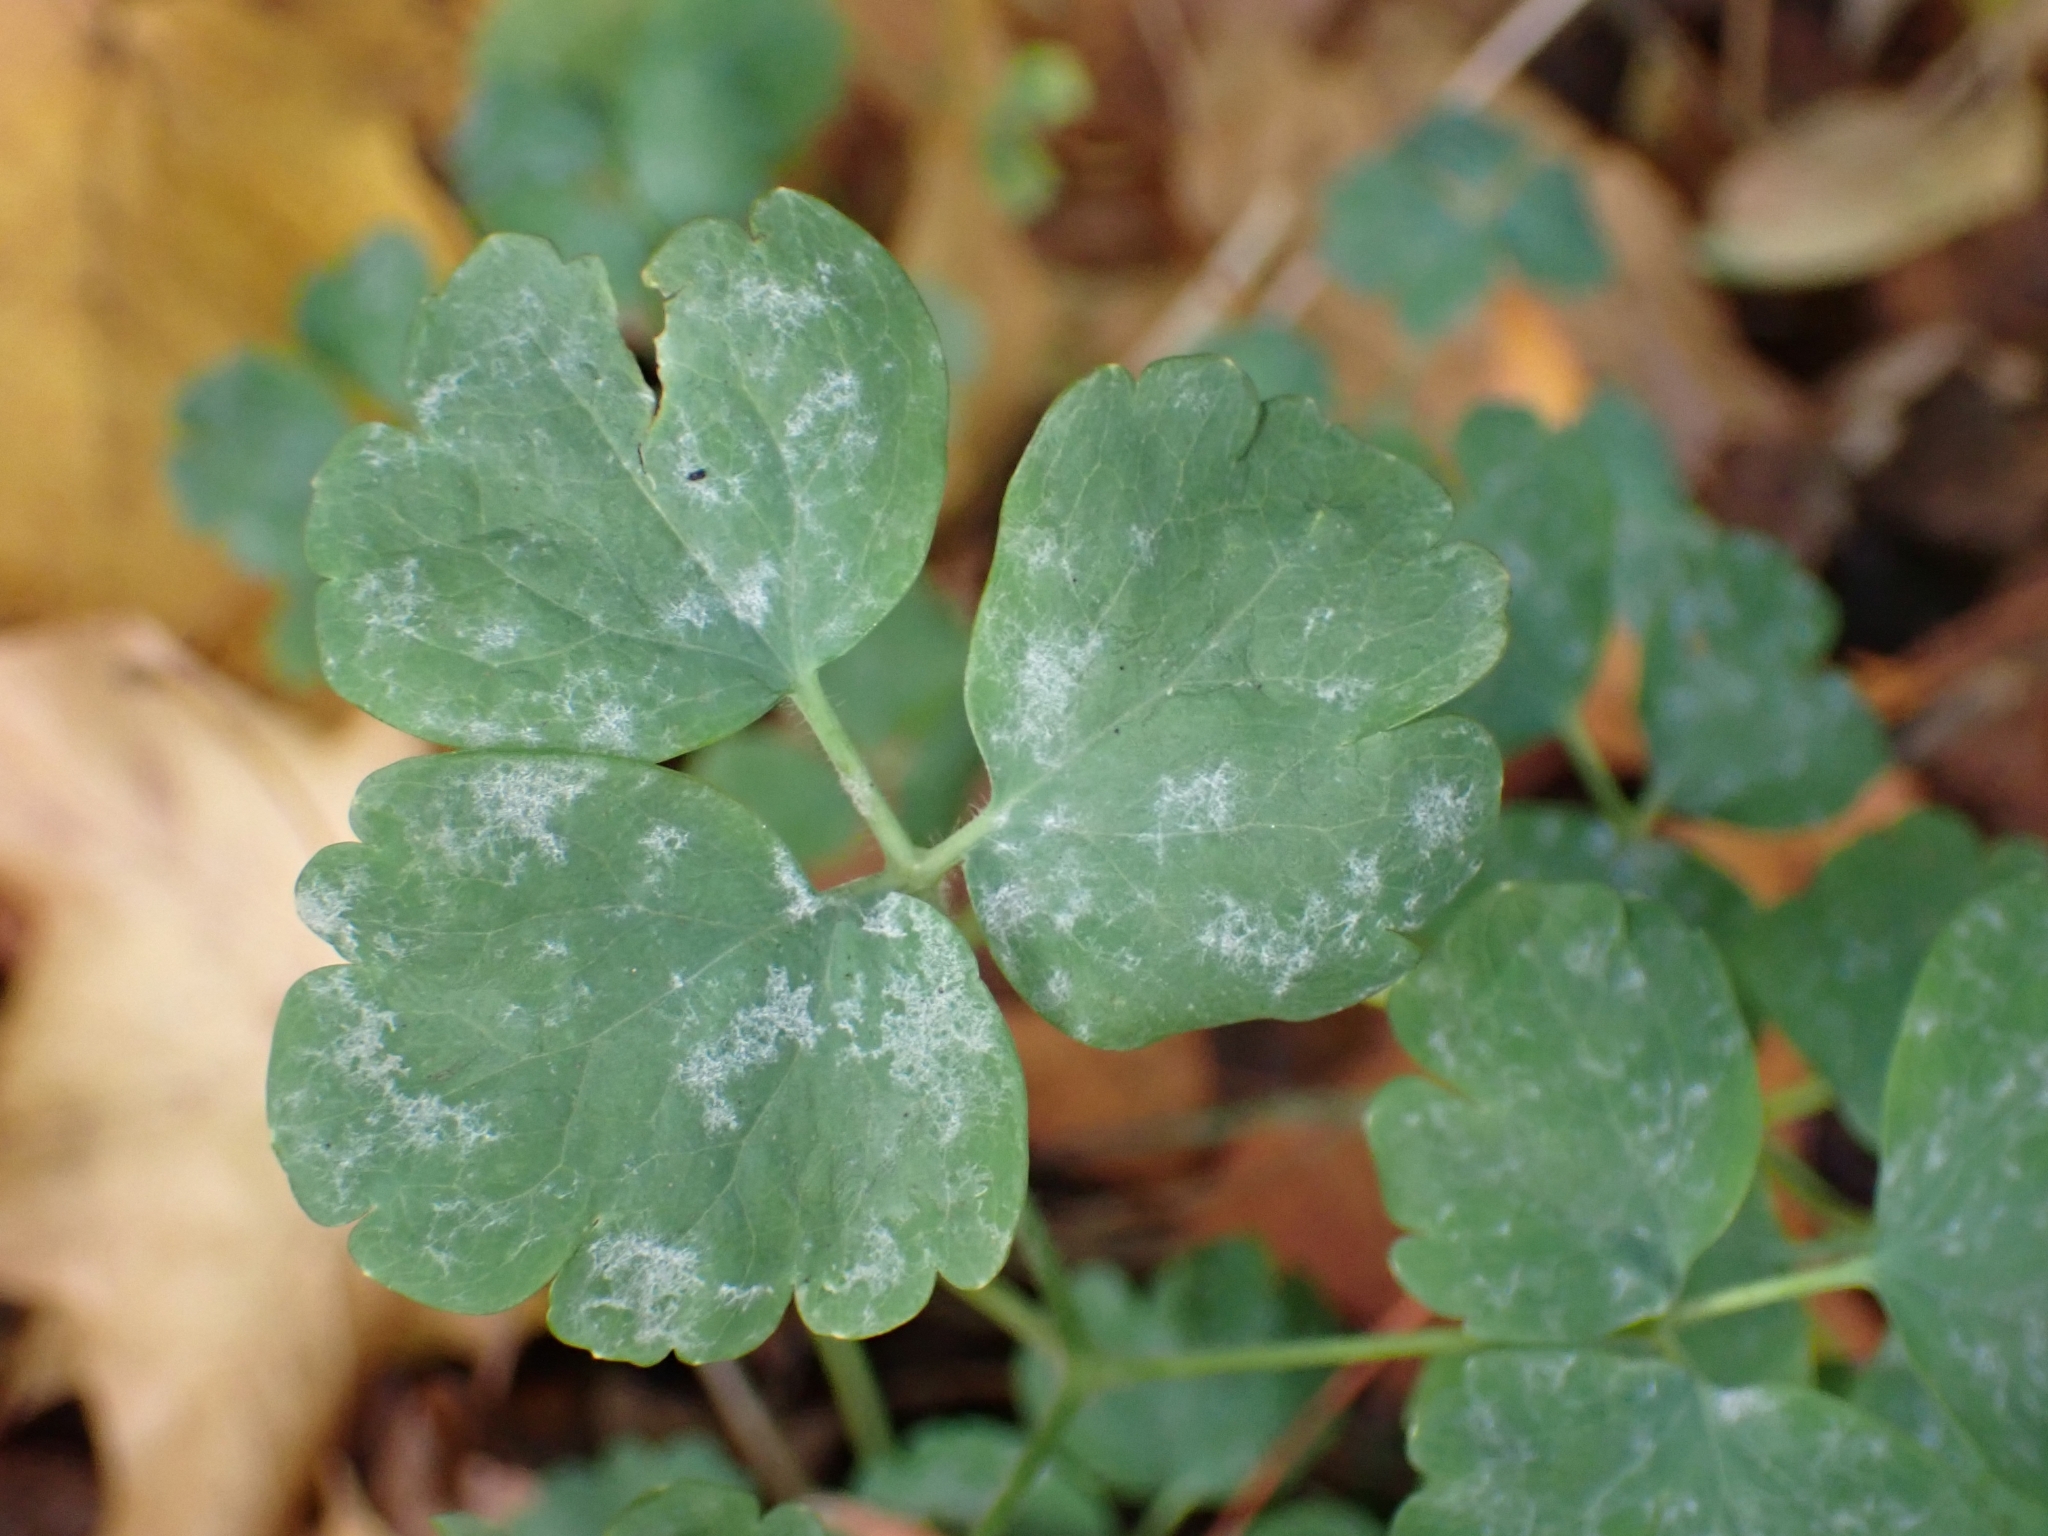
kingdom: Fungi
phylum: Ascomycota
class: Leotiomycetes
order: Helotiales
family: Erysiphaceae
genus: Erysiphe
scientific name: Erysiphe aquilegiae
